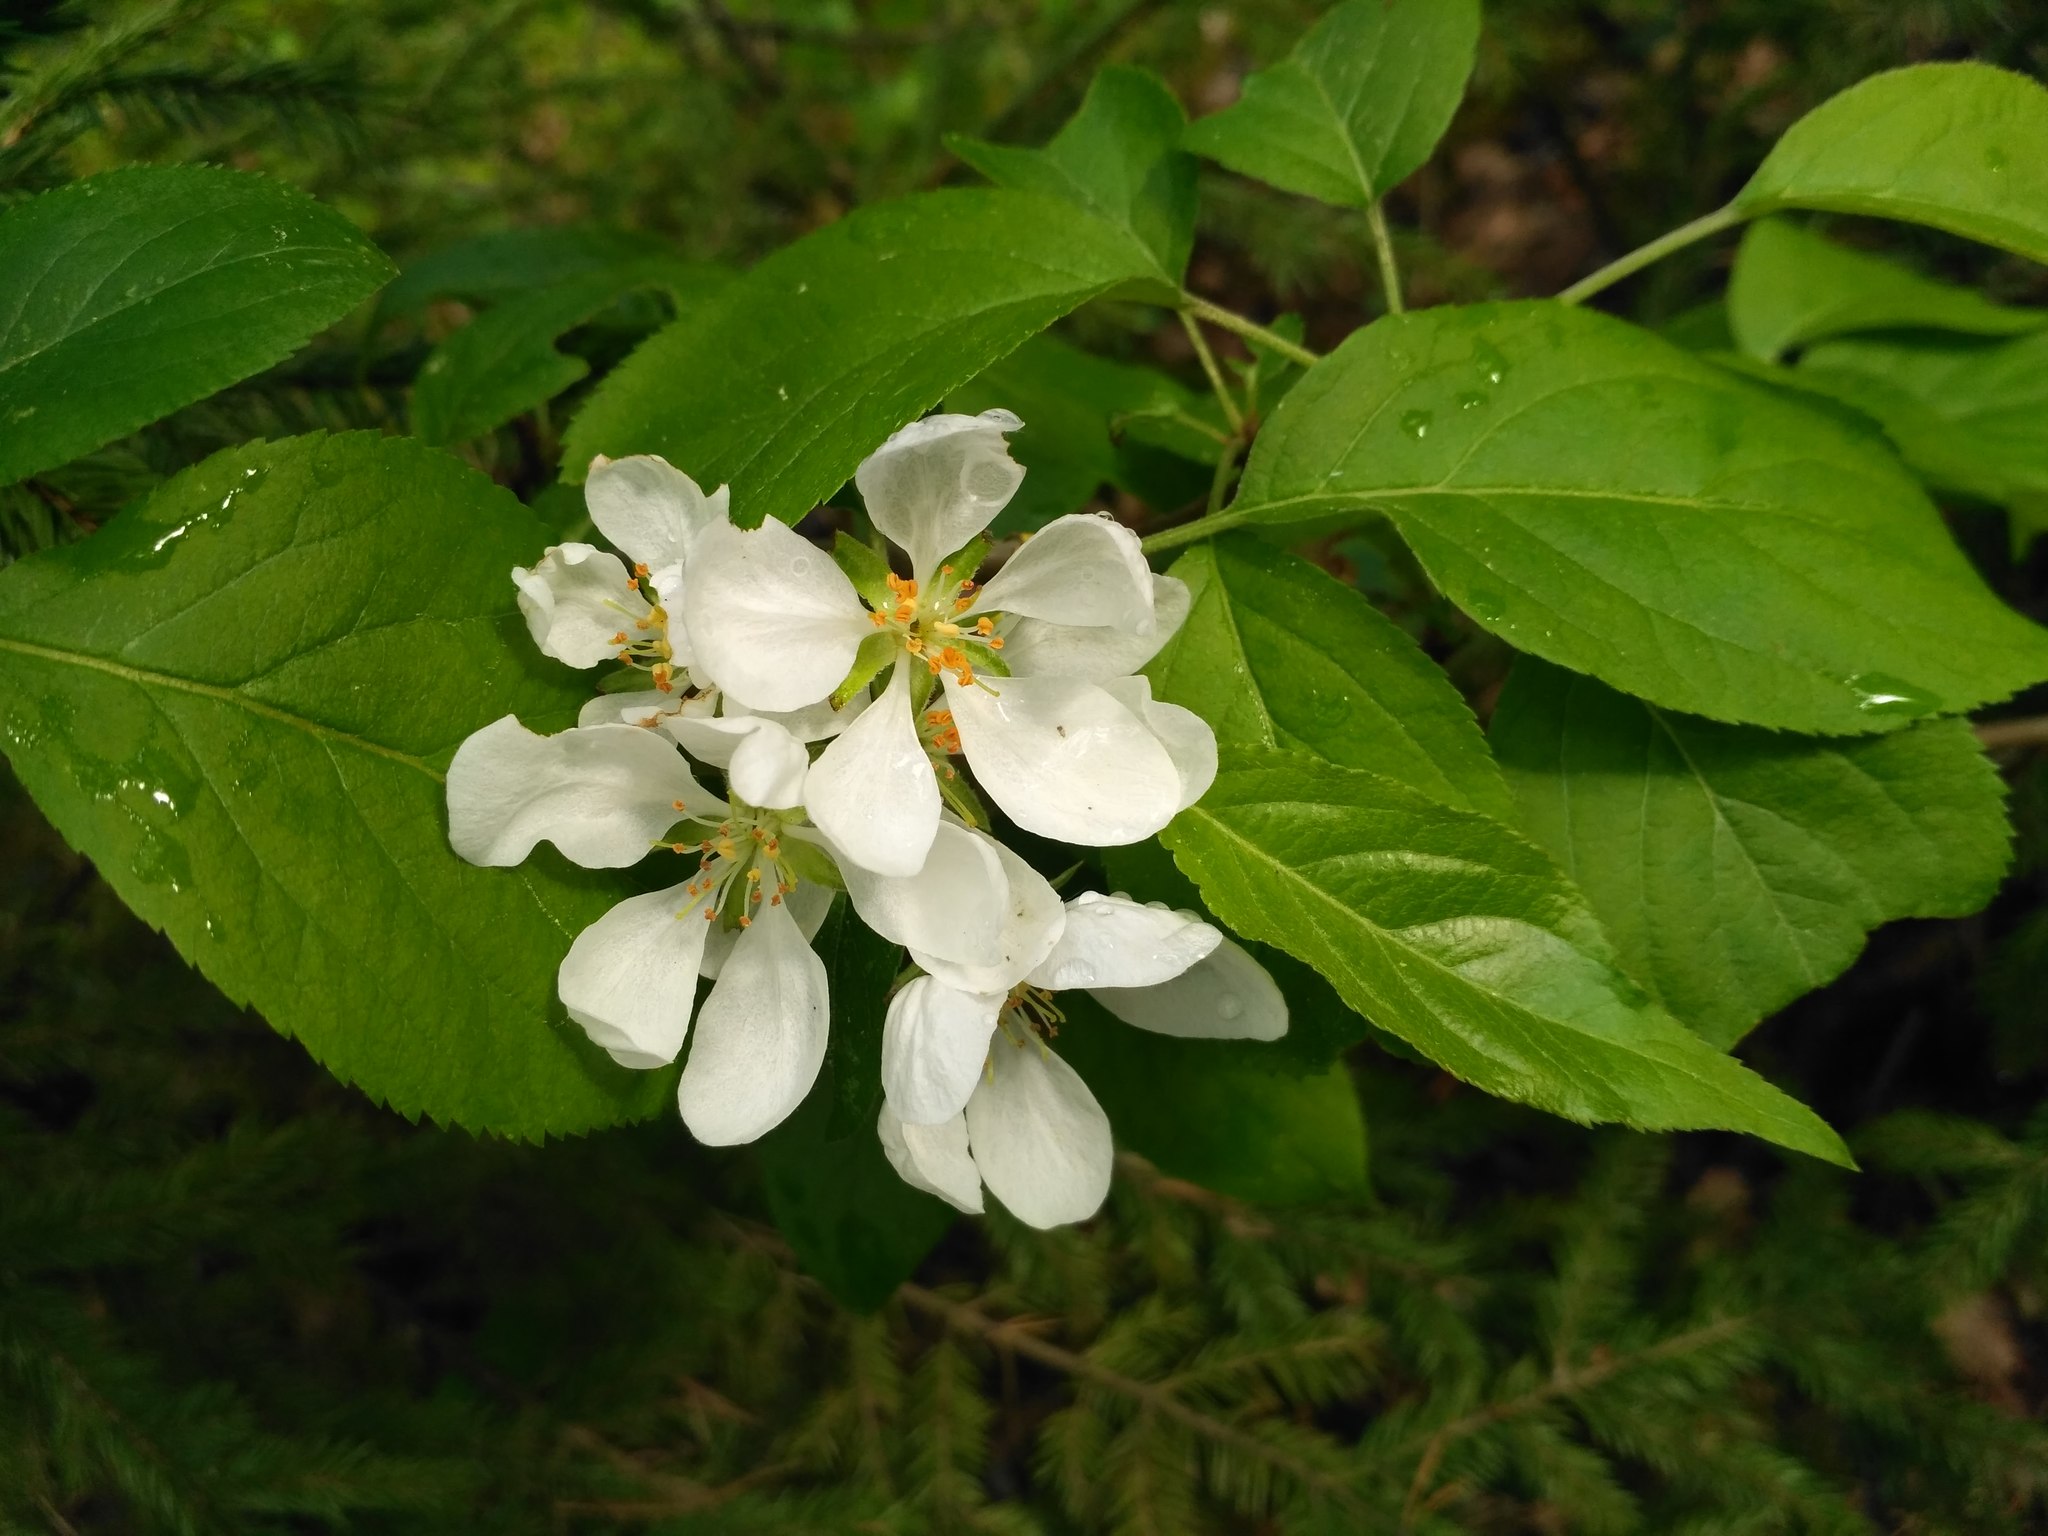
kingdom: Plantae
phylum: Tracheophyta
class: Magnoliopsida
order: Rosales
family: Rosaceae
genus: Malus
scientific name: Malus sylvestris
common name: Crab apple
